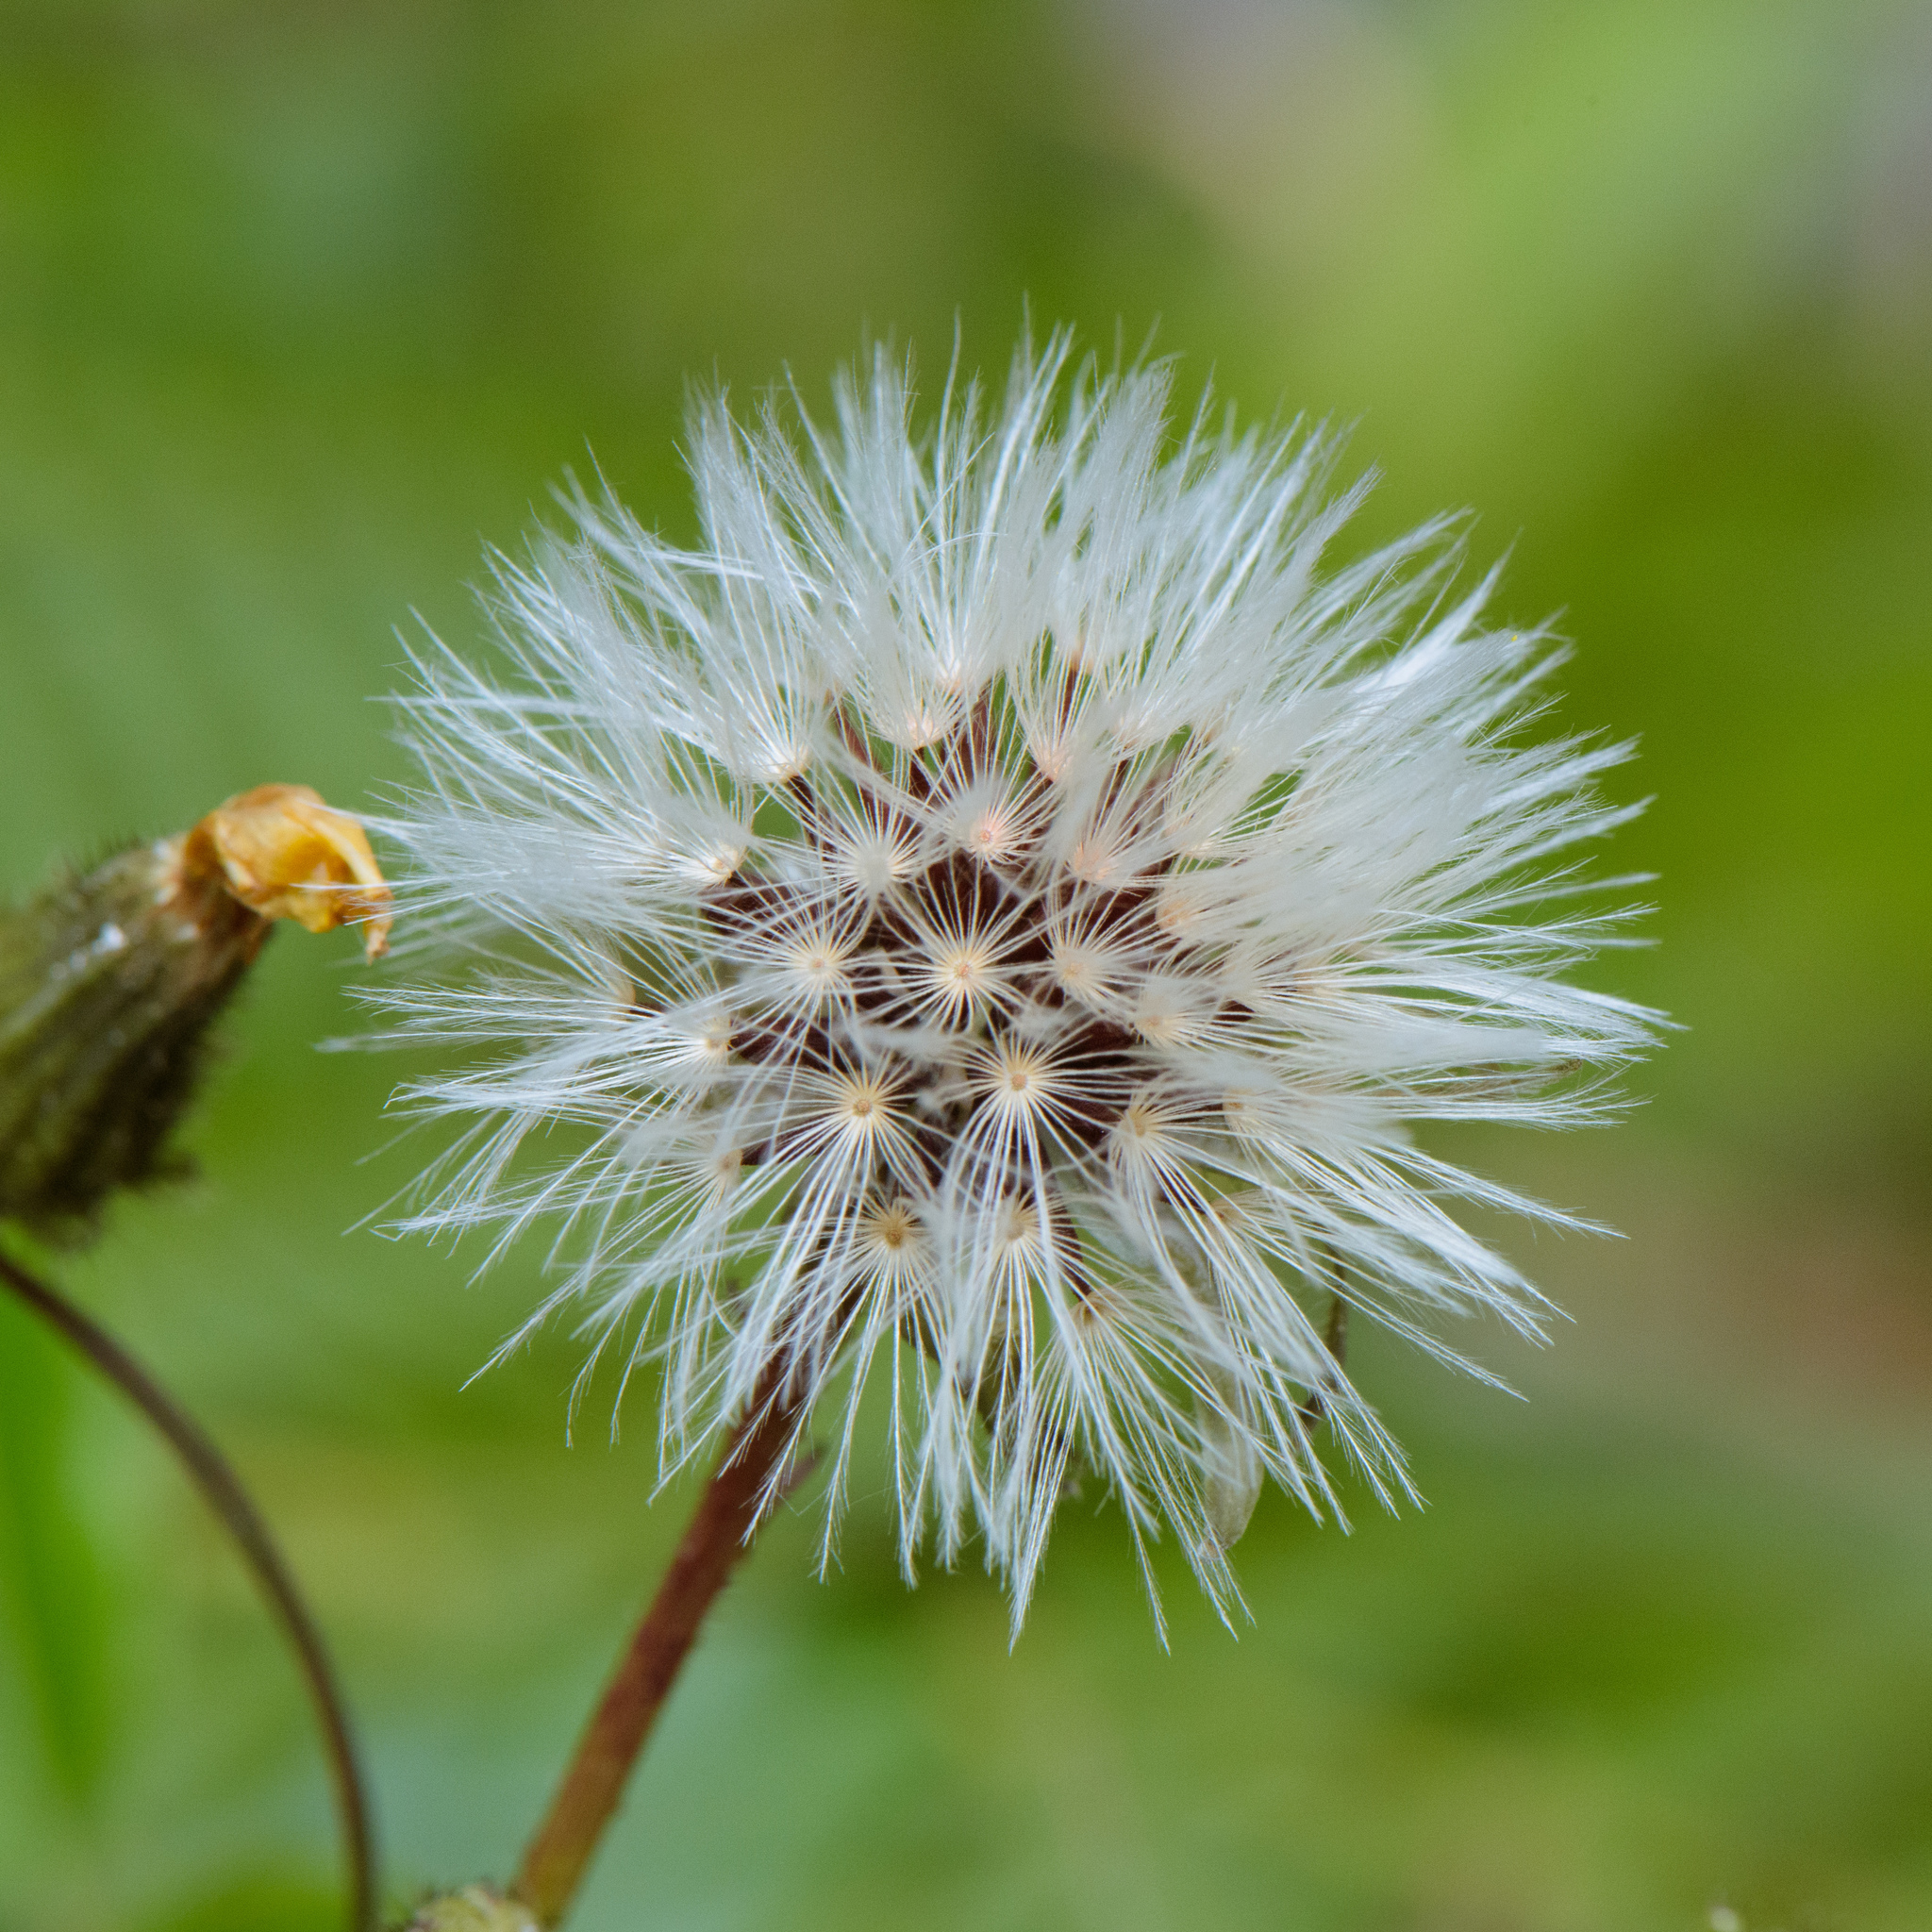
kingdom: Plantae
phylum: Tracheophyta
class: Magnoliopsida
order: Asterales
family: Asteraceae
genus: Picris
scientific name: Picris angustifolia
